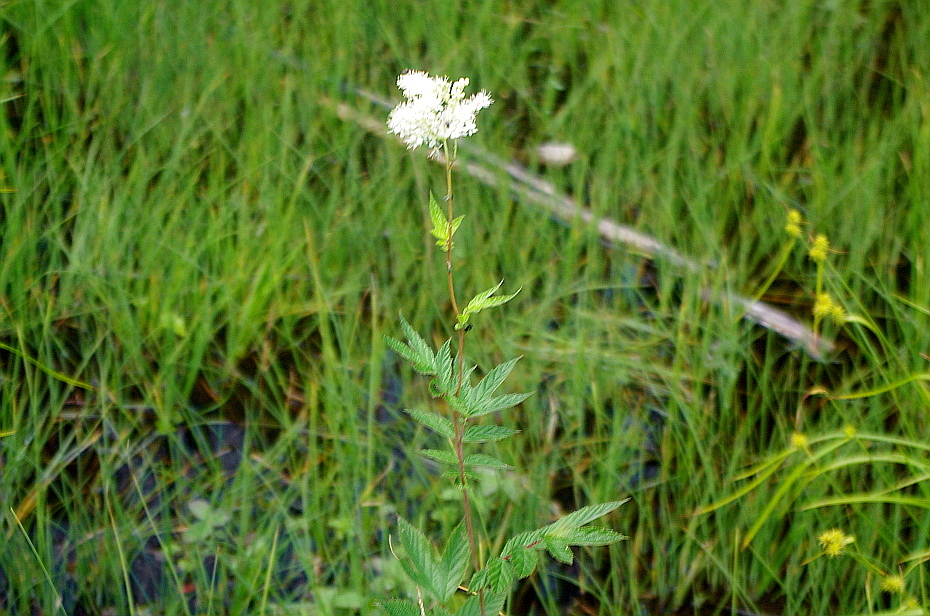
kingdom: Plantae
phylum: Tracheophyta
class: Magnoliopsida
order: Rosales
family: Rosaceae
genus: Filipendula
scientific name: Filipendula ulmaria
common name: Meadowsweet
